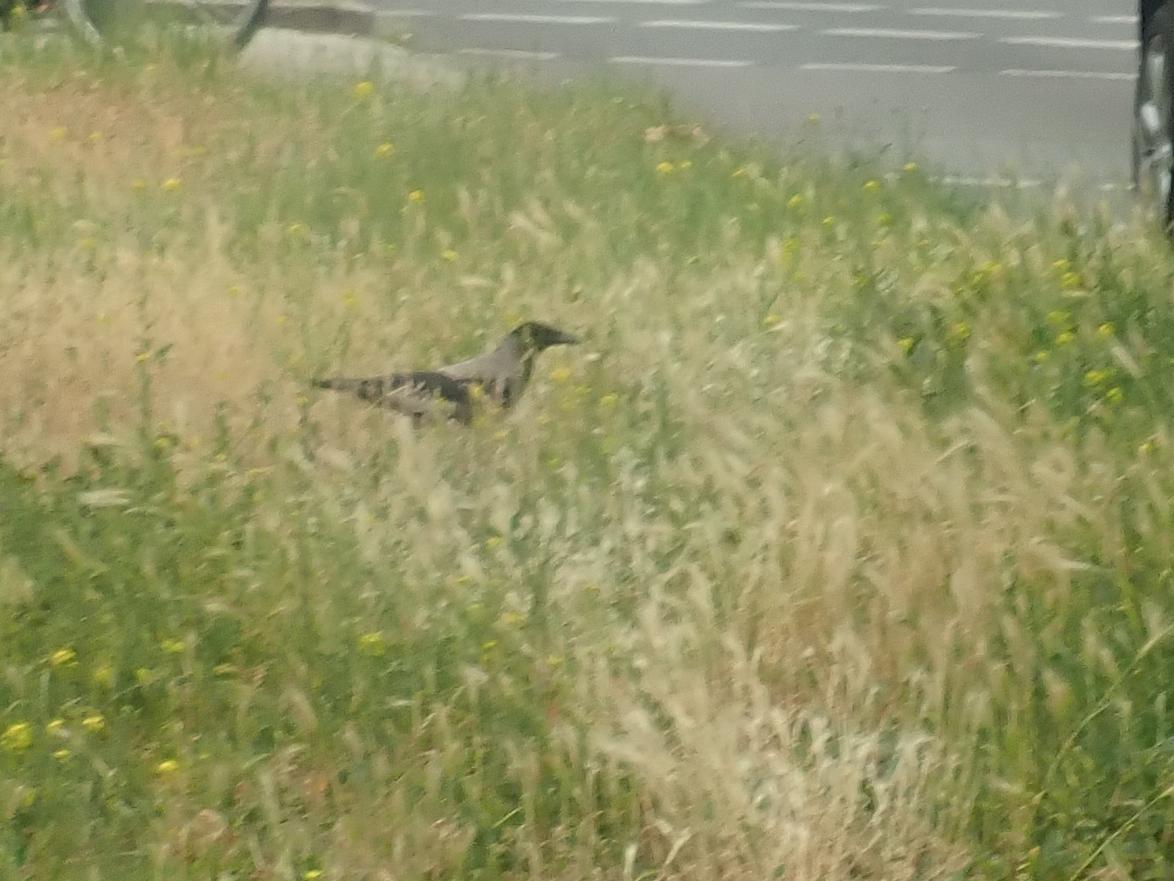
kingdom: Animalia
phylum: Chordata
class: Aves
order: Passeriformes
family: Corvidae
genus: Corvus
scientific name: Corvus cornix
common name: Hooded crow
